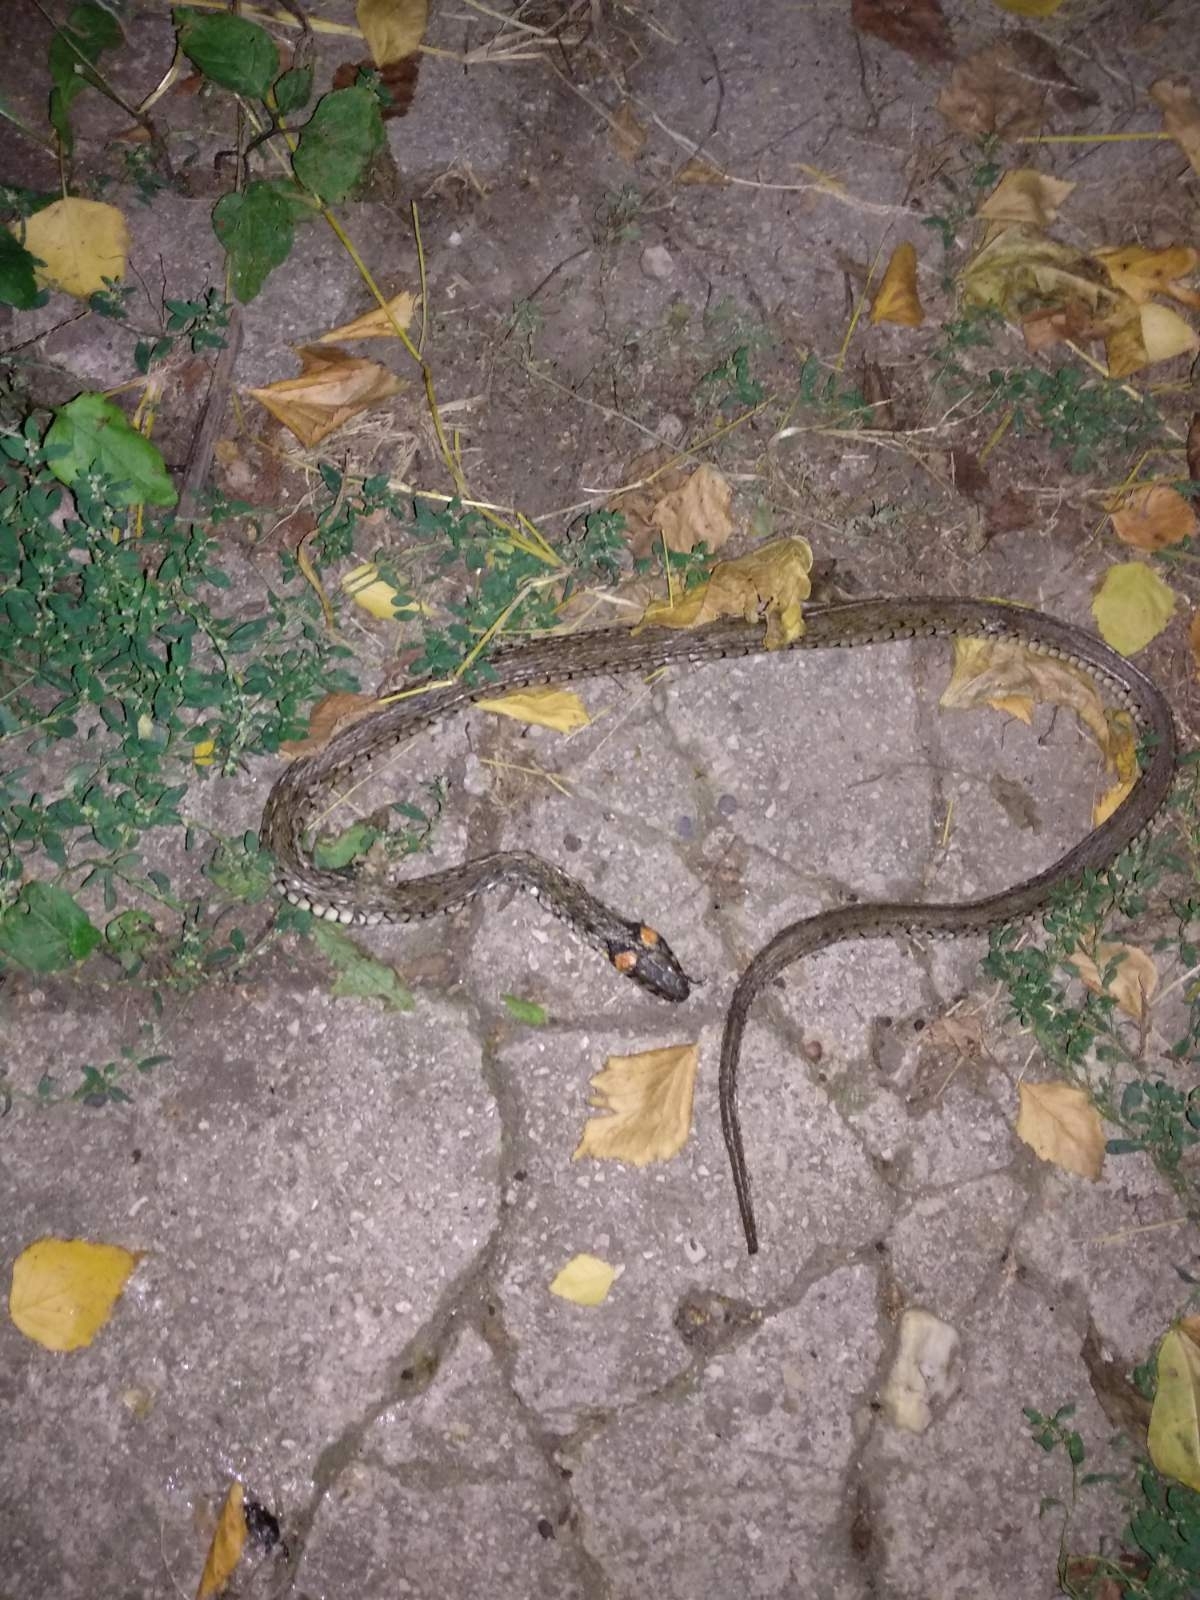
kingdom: Animalia
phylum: Chordata
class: Squamata
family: Colubridae
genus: Natrix
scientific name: Natrix natrix
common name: Grass snake
